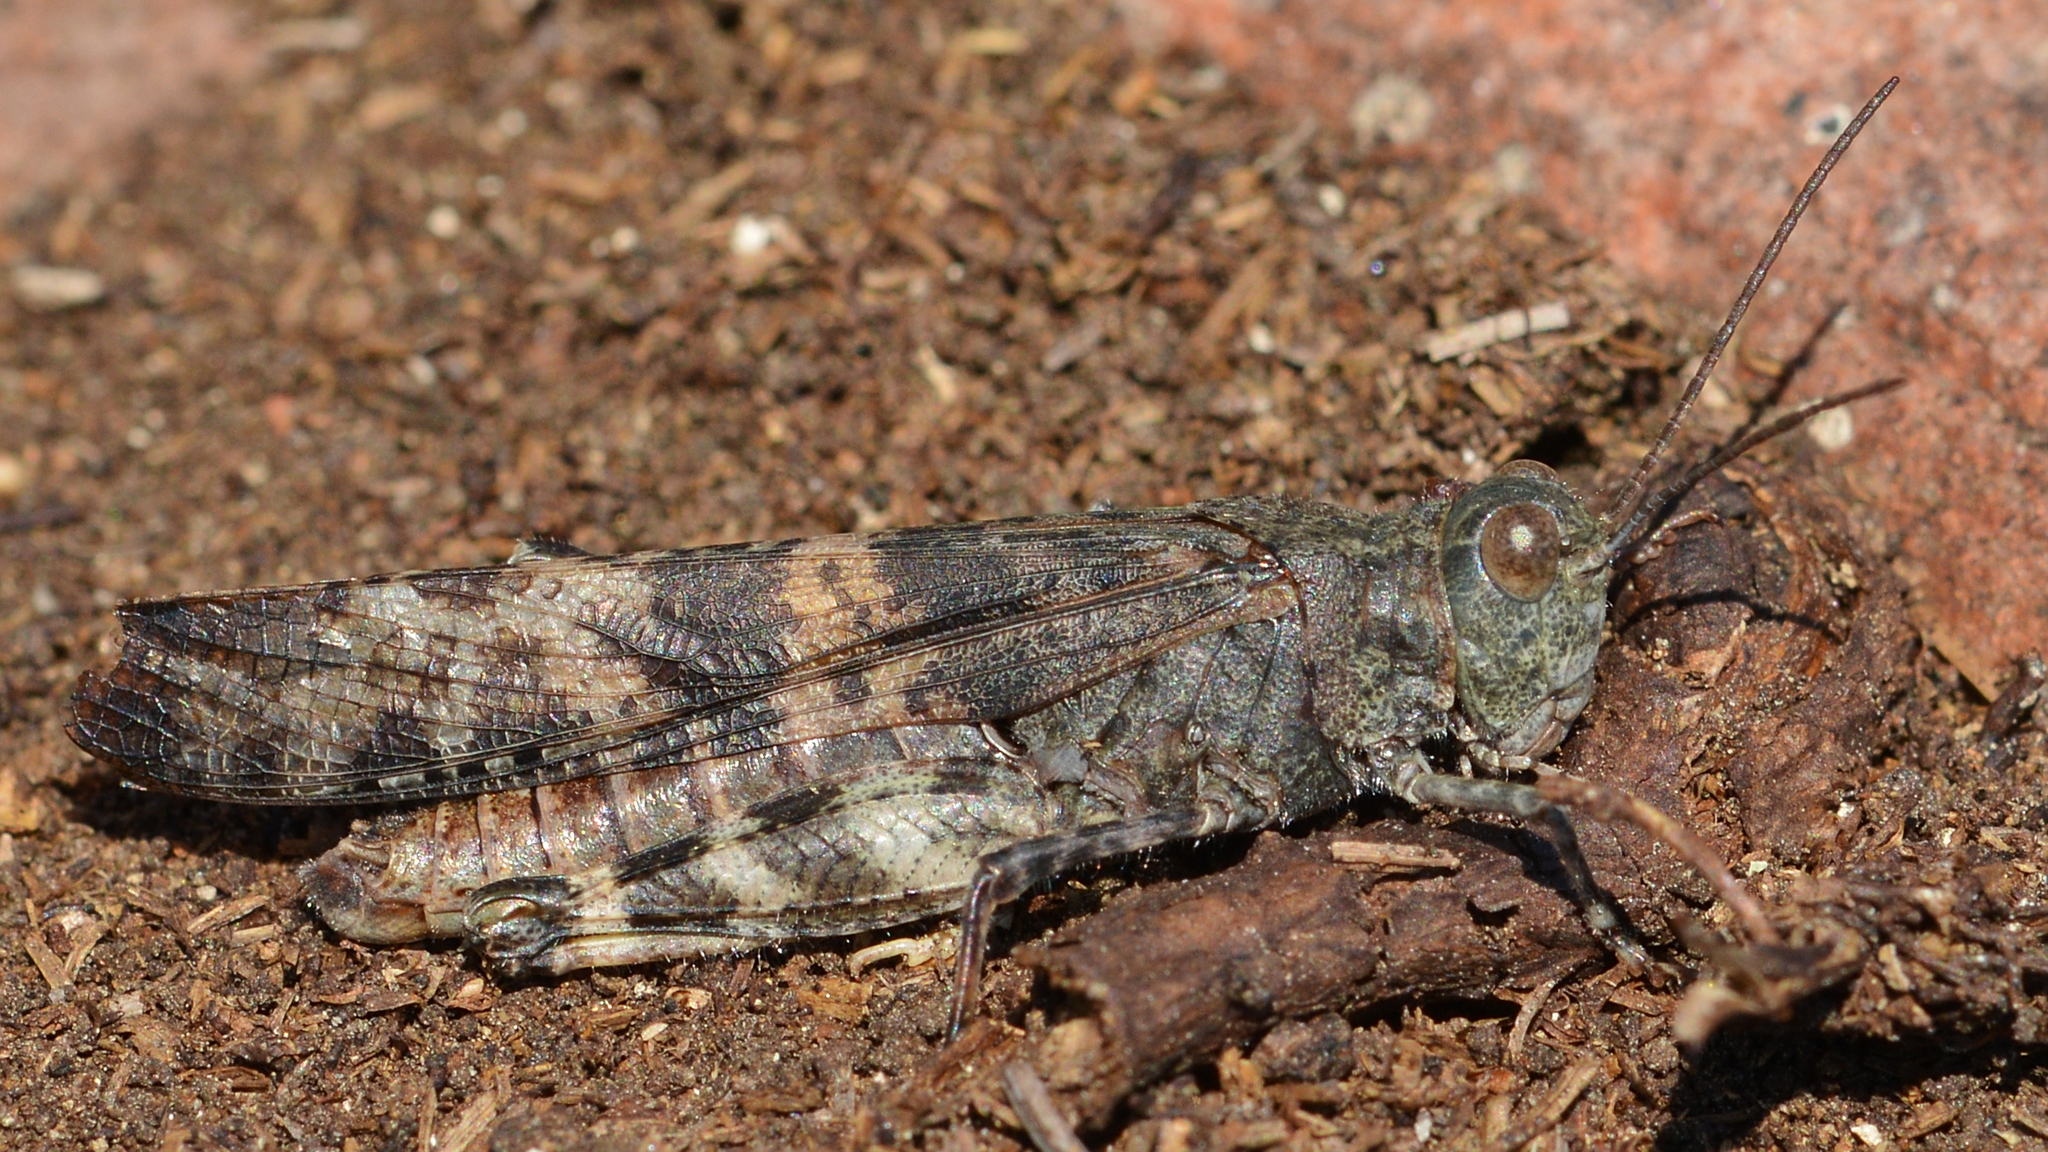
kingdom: Animalia
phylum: Arthropoda
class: Insecta
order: Orthoptera
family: Acrididae
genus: Trimerotropis
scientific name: Trimerotropis verruculata
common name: Crackling forest grasshopper
